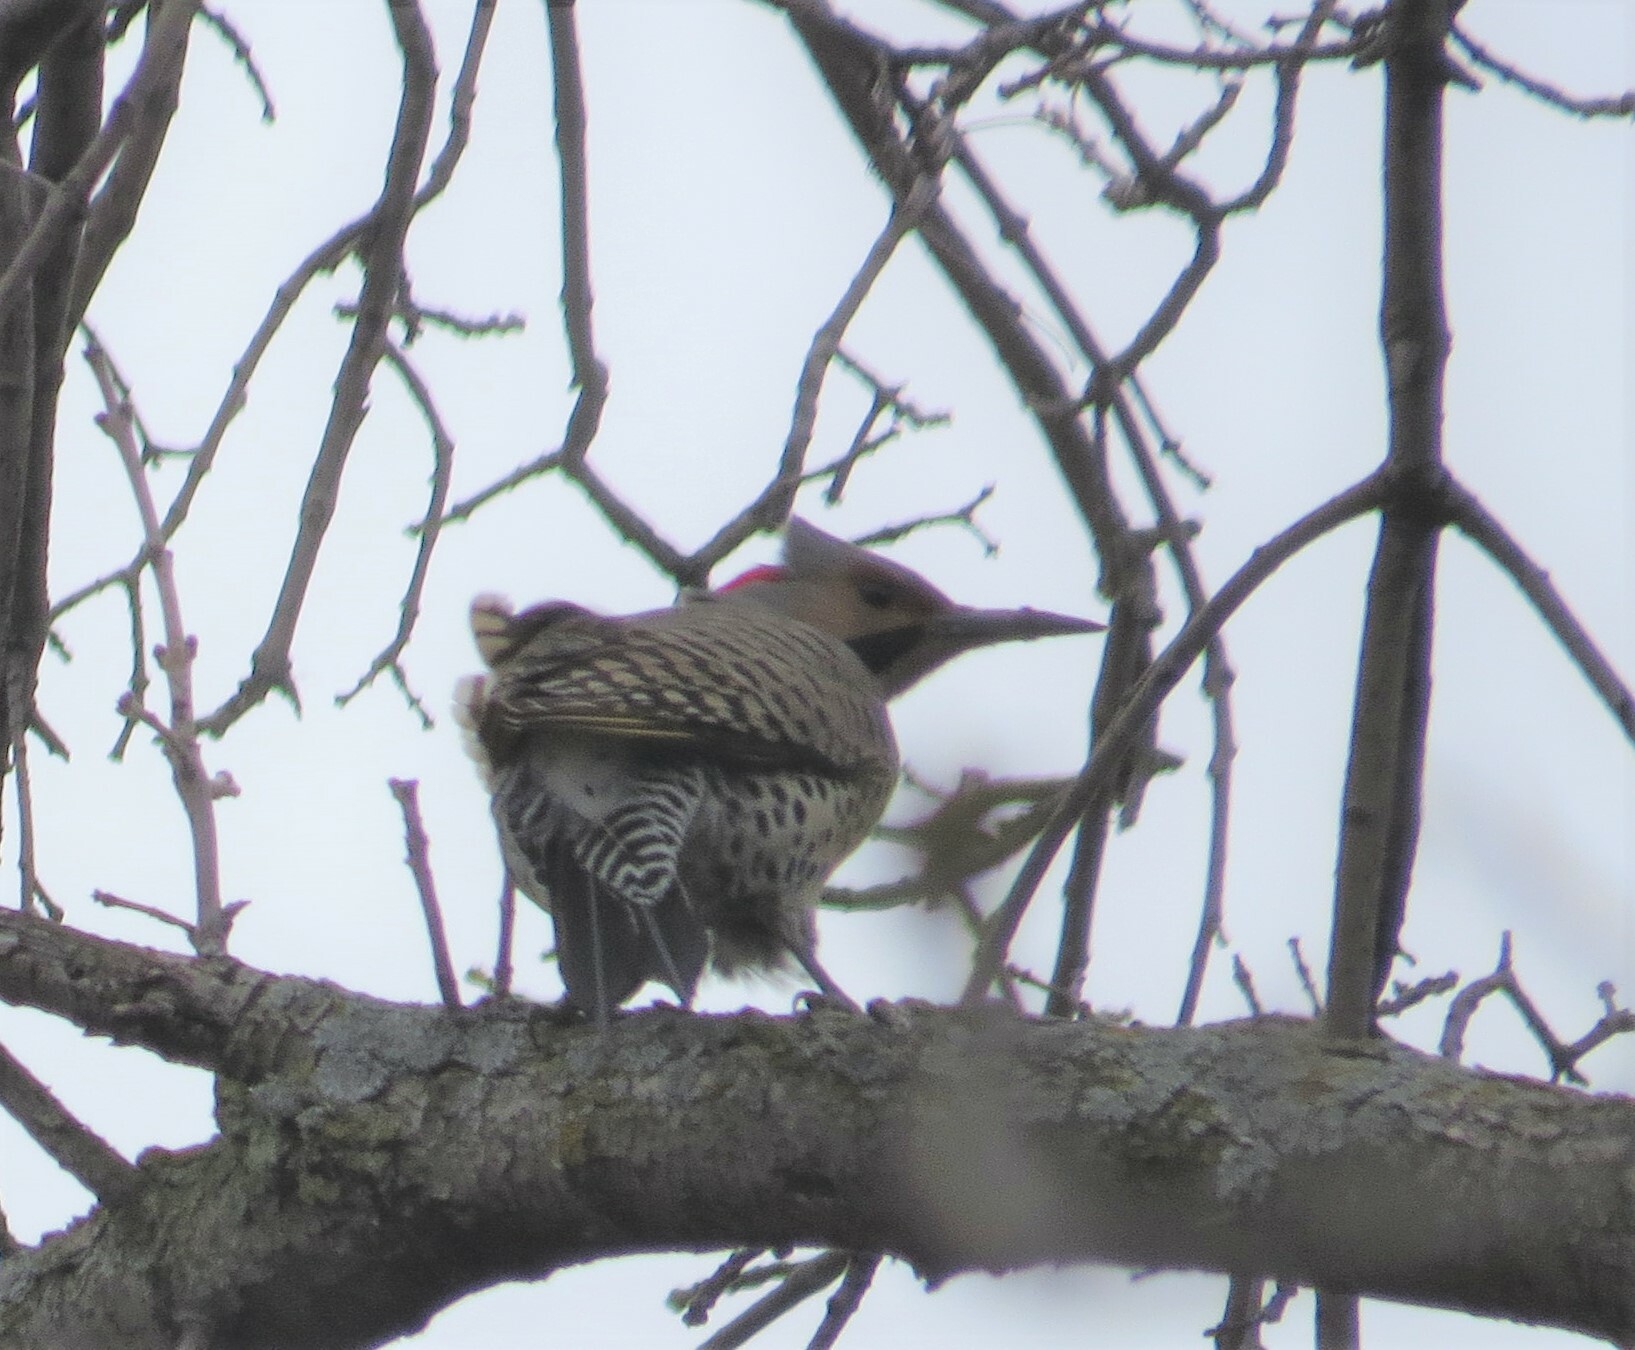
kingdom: Animalia
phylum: Chordata
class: Aves
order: Piciformes
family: Picidae
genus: Colaptes
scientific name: Colaptes auratus
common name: Northern flicker
